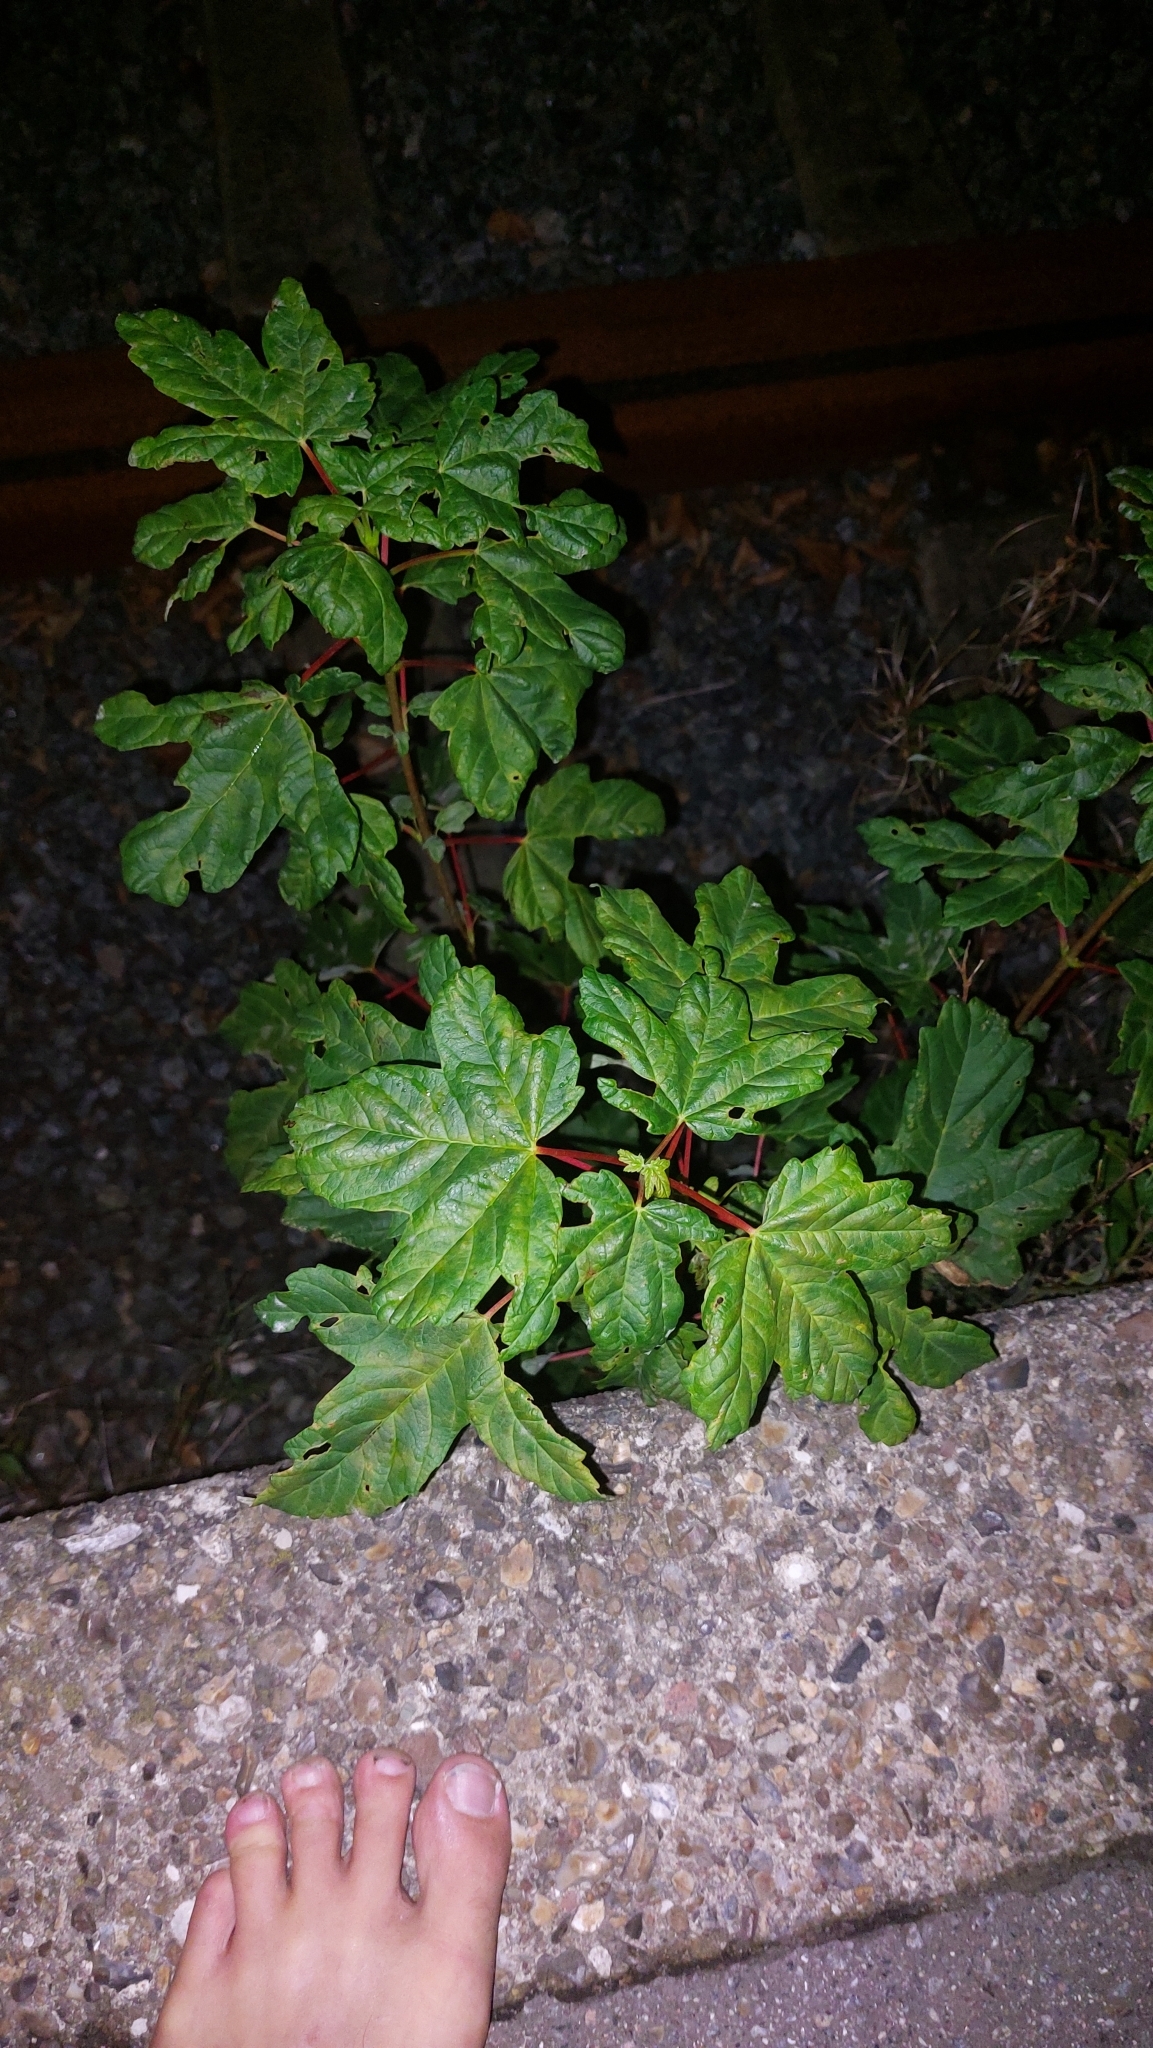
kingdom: Plantae
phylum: Tracheophyta
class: Magnoliopsida
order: Sapindales
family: Sapindaceae
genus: Acer
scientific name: Acer pseudoplatanus
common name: Sycamore
